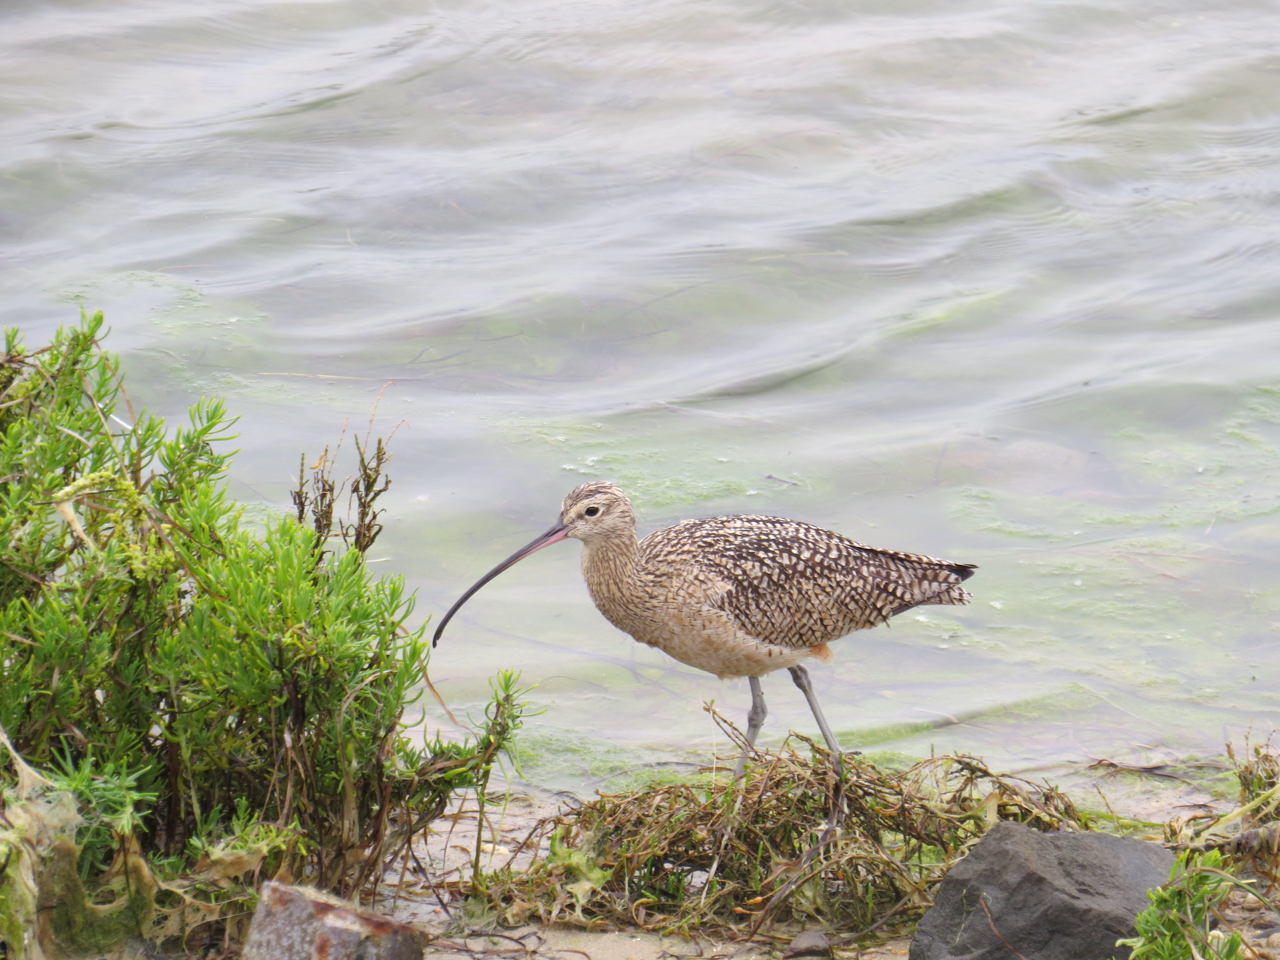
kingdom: Animalia
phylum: Chordata
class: Aves
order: Charadriiformes
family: Scolopacidae
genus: Numenius
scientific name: Numenius americanus
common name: Long-billed curlew
